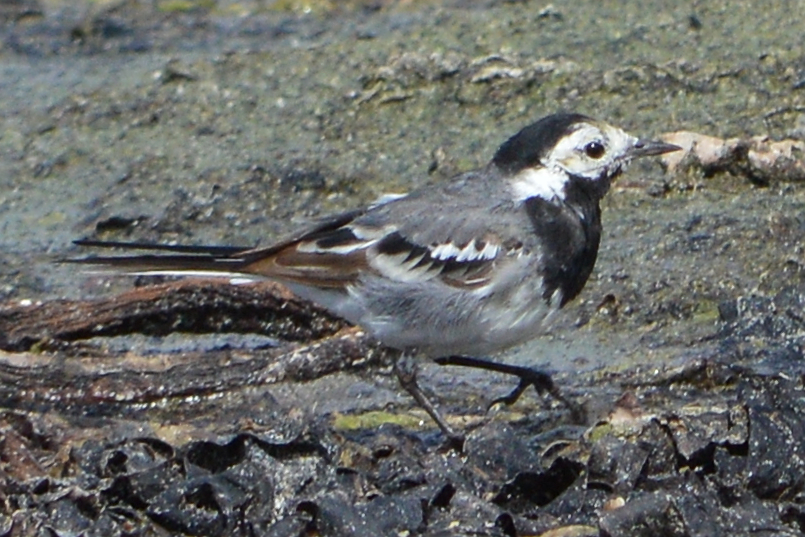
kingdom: Animalia
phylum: Chordata
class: Aves
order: Passeriformes
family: Motacillidae
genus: Motacilla
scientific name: Motacilla alba
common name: White wagtail
